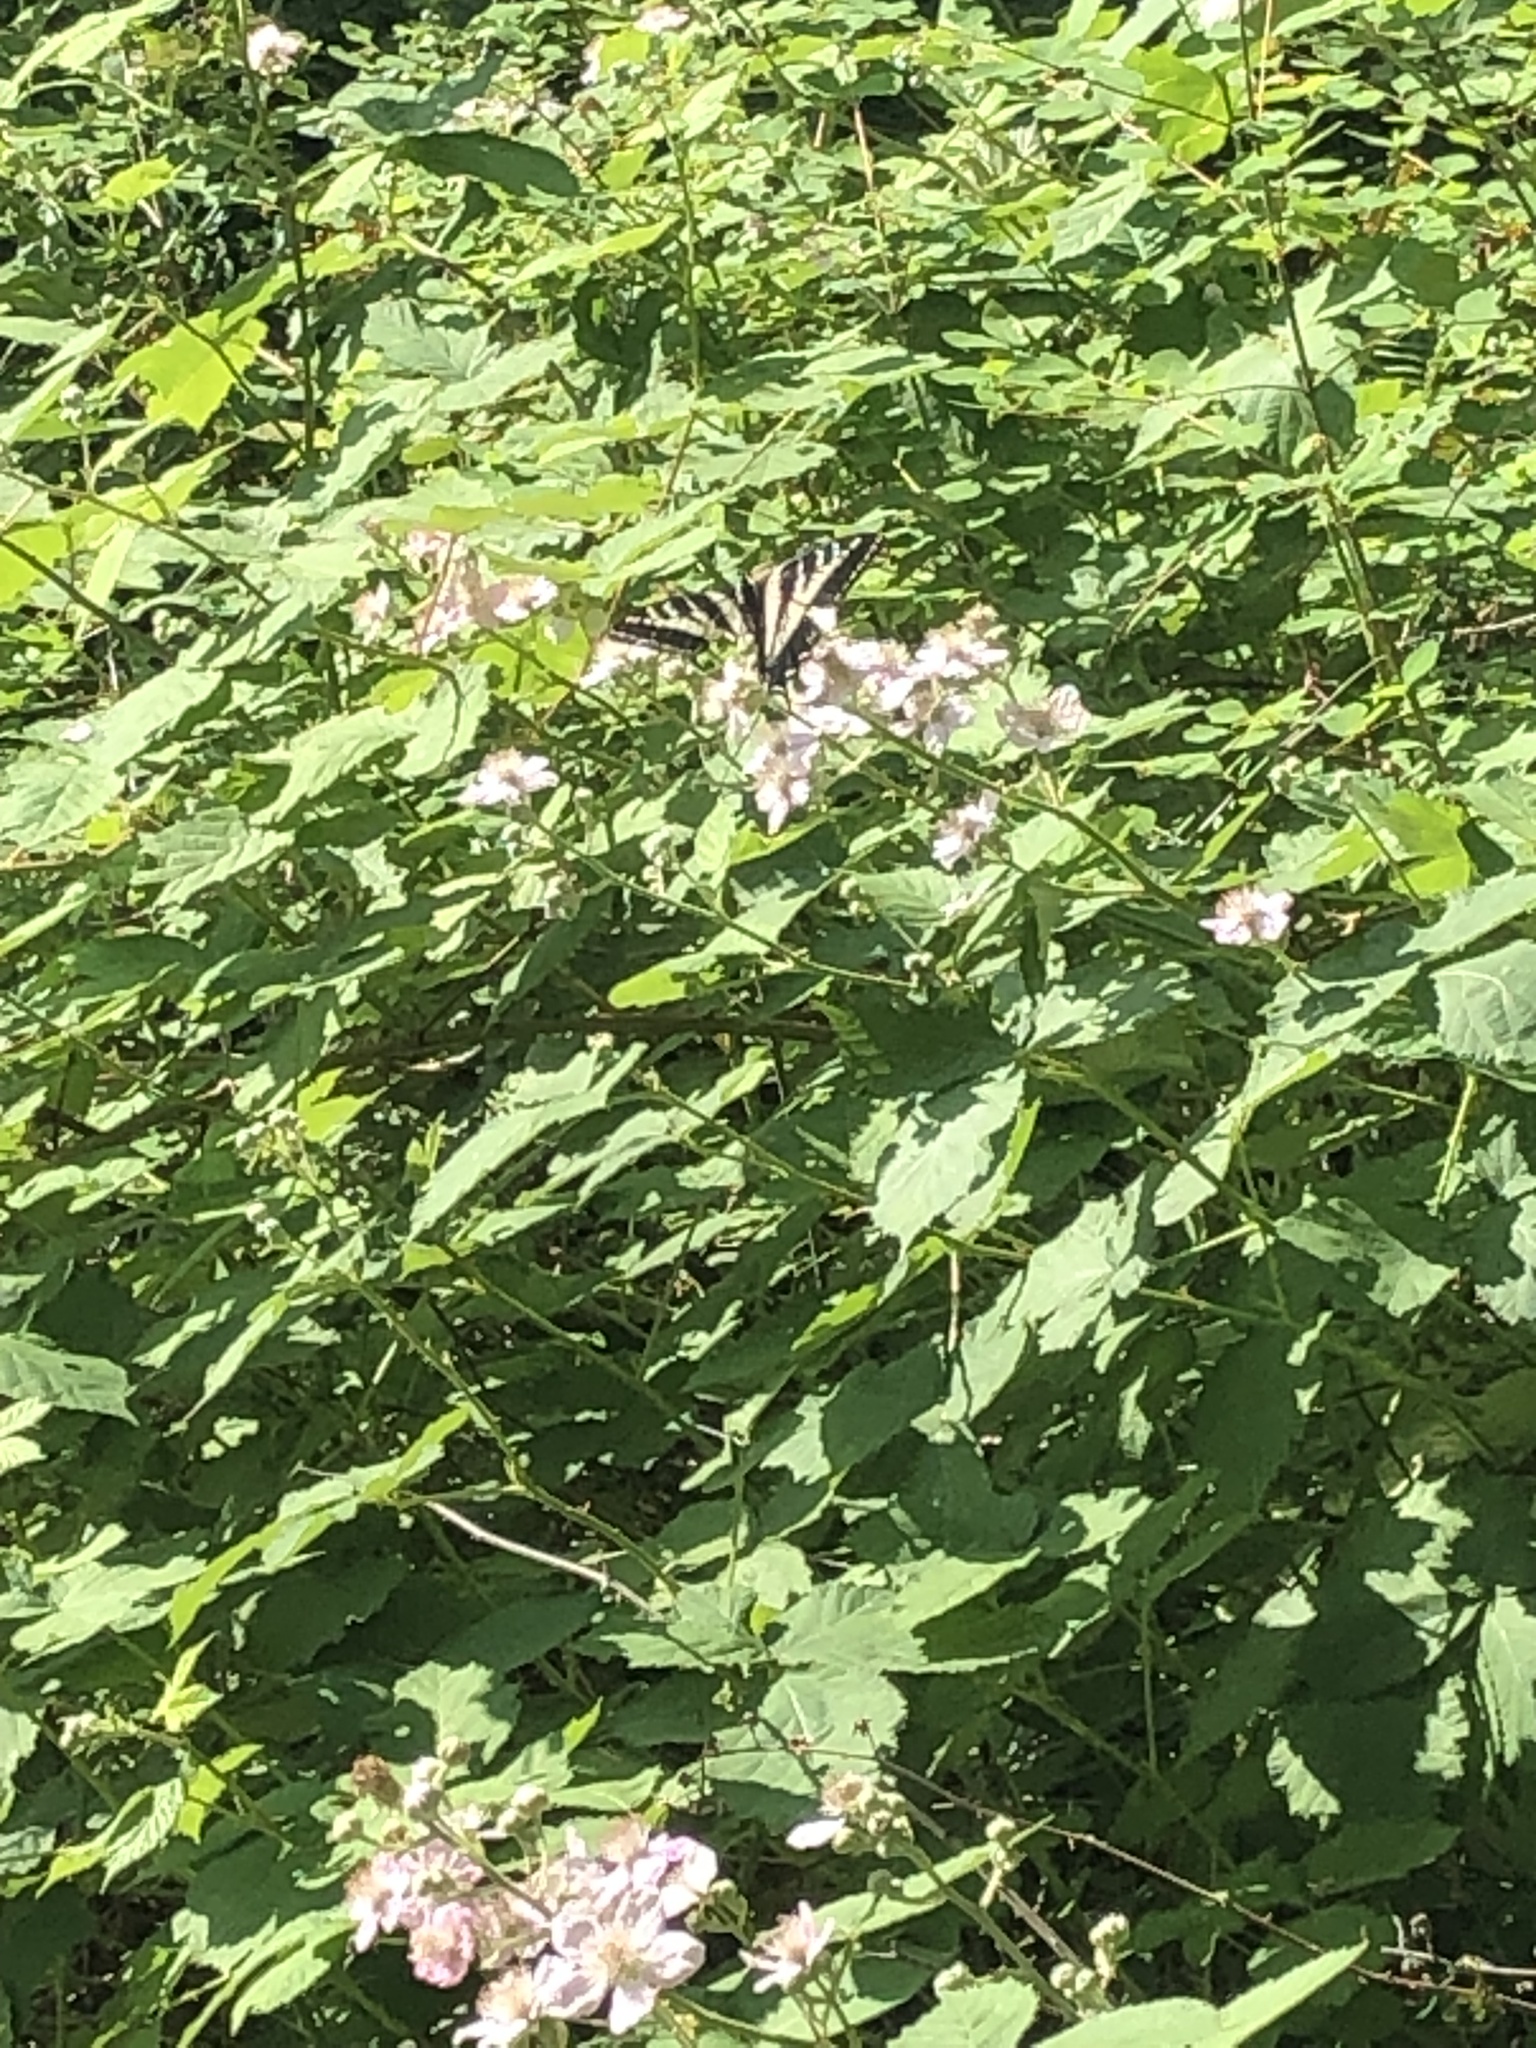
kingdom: Animalia
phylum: Arthropoda
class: Insecta
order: Lepidoptera
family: Papilionidae
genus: Papilio
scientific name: Papilio eurymedon
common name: Pale tiger swallowtail
